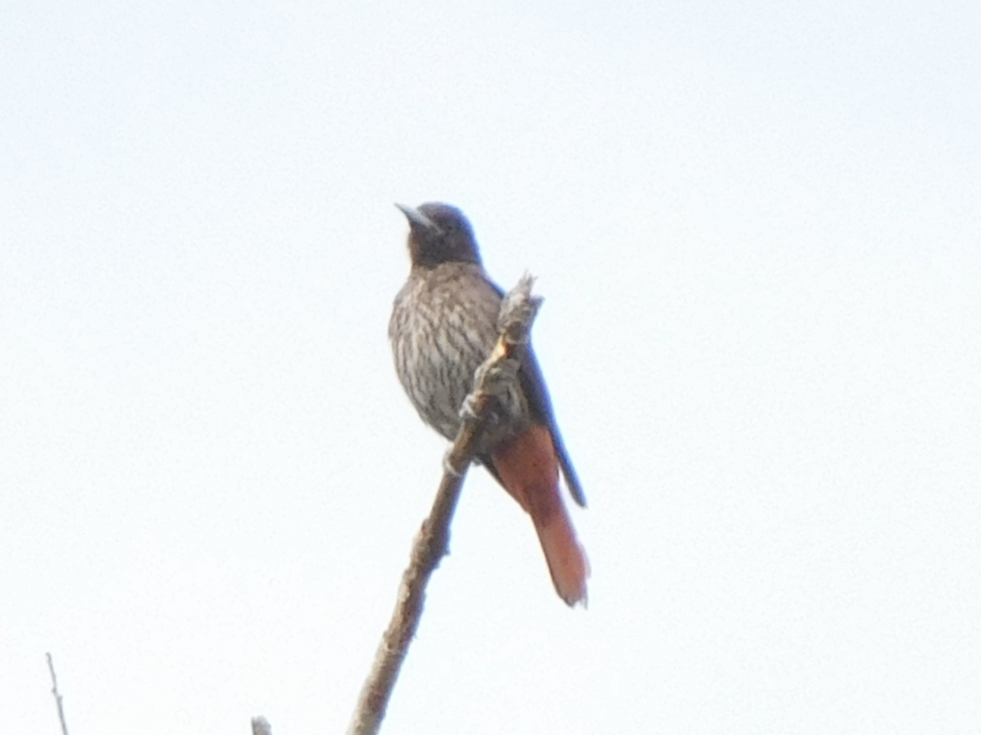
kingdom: Animalia
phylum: Chordata
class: Aves
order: Passeriformes
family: Oriolidae
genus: Oriolus
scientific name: Oriolus traillii
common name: Maroon oriole
